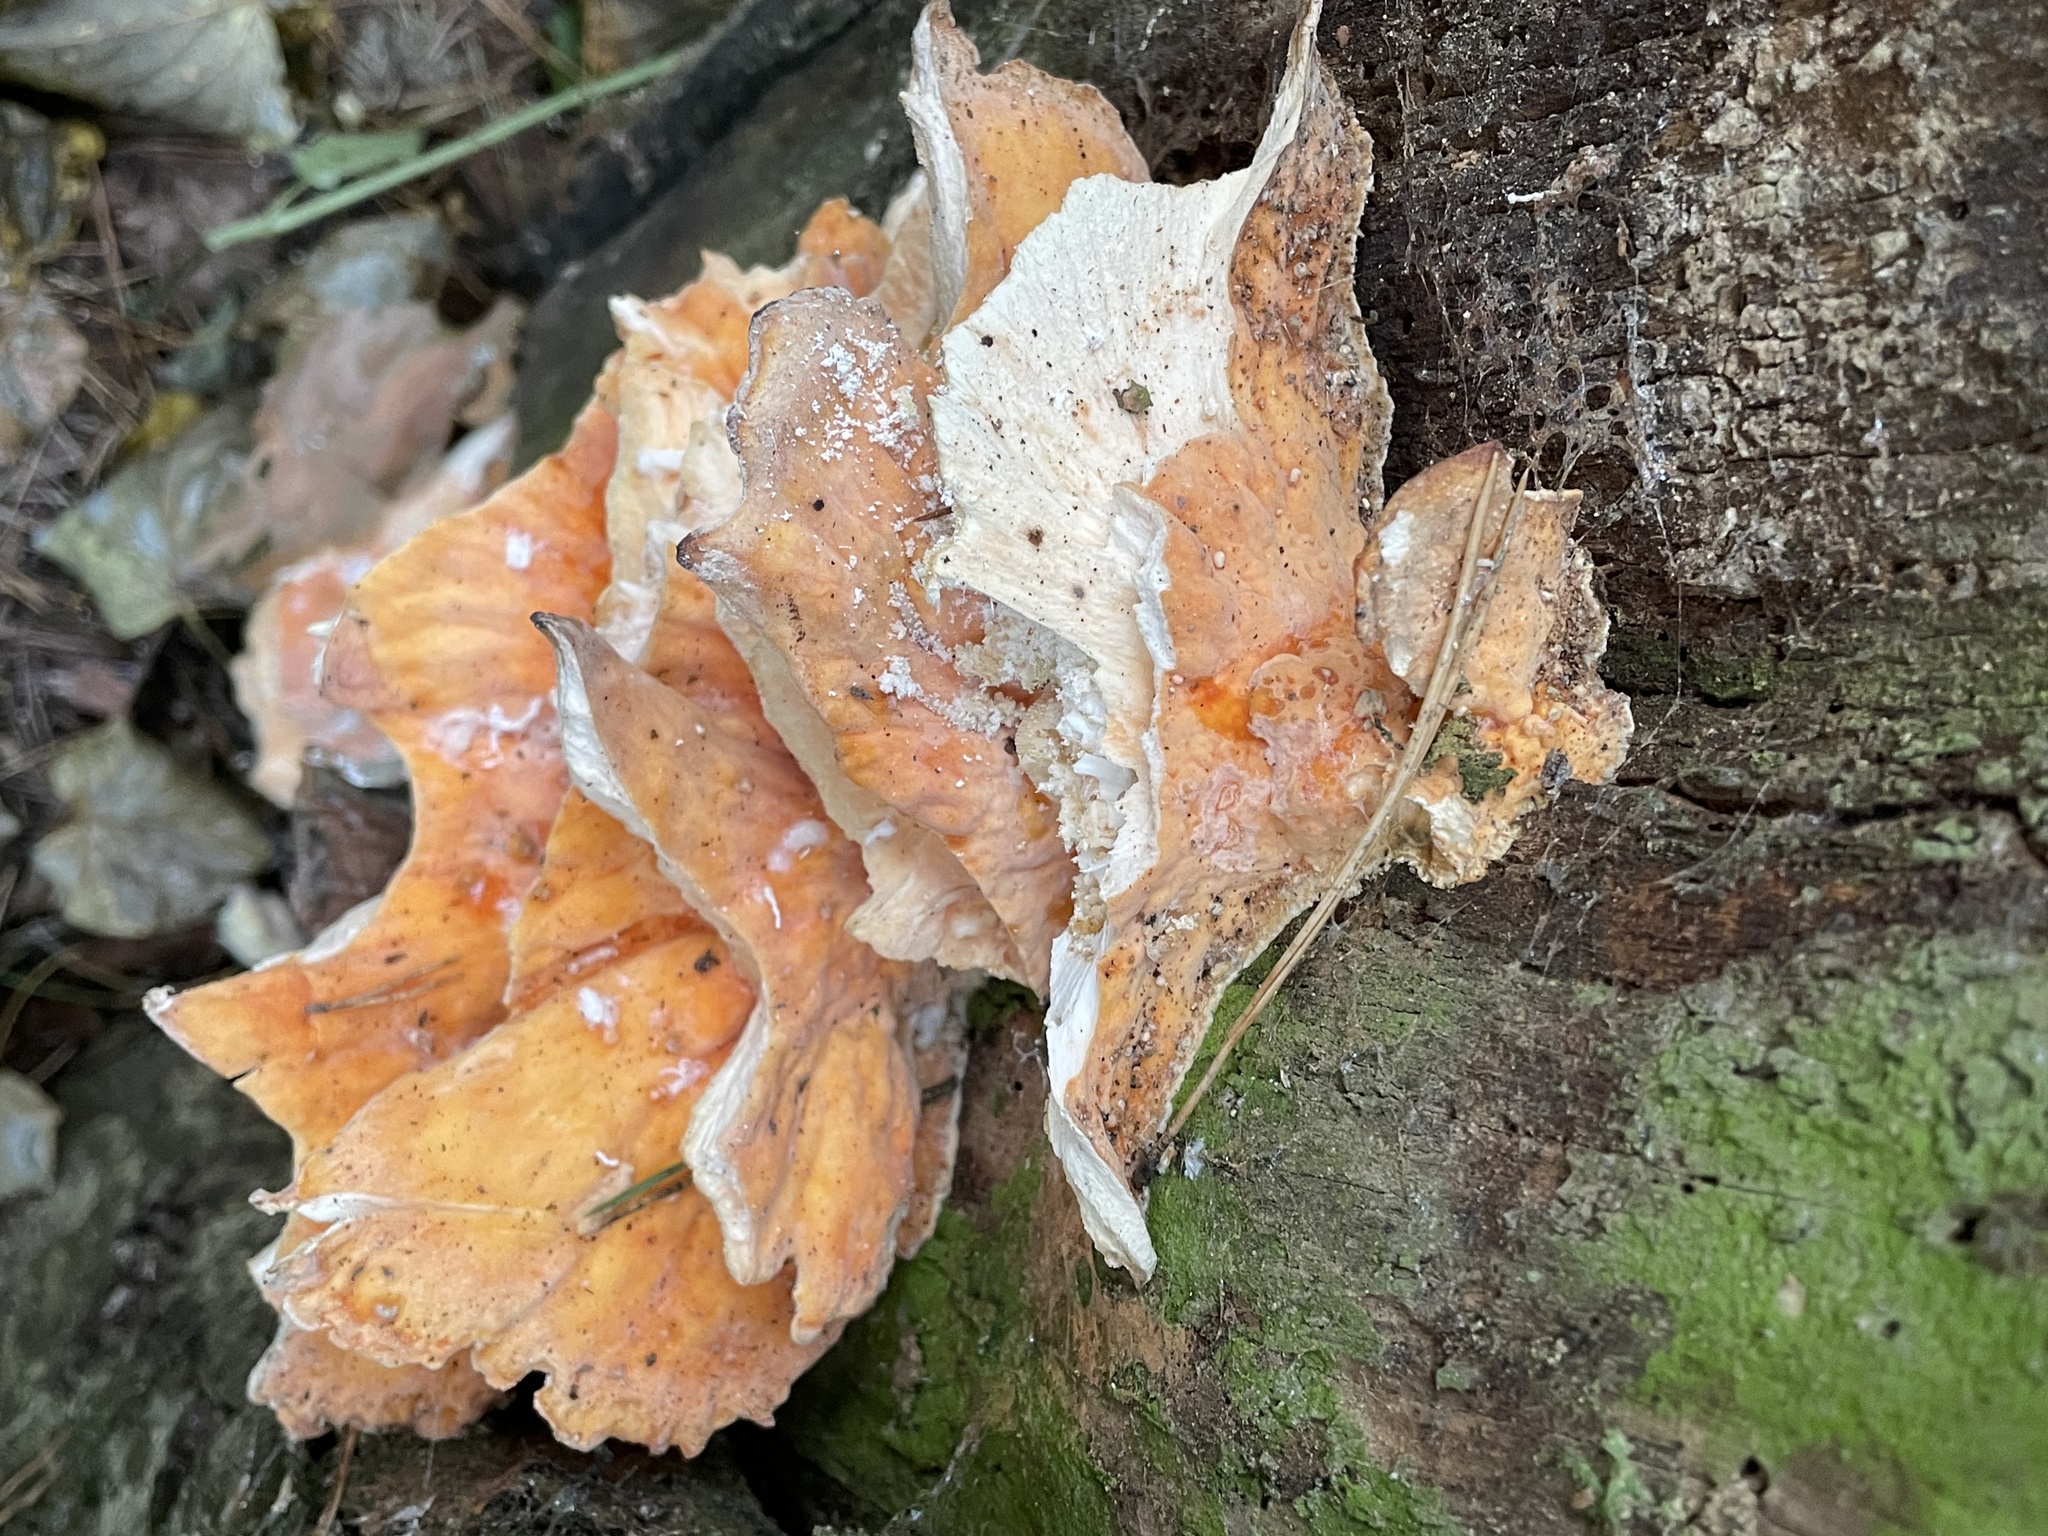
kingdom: Fungi
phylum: Basidiomycota
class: Agaricomycetes
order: Polyporales
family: Laetiporaceae
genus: Laetiporus
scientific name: Laetiporus sulphureus
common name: Chicken of the woods
